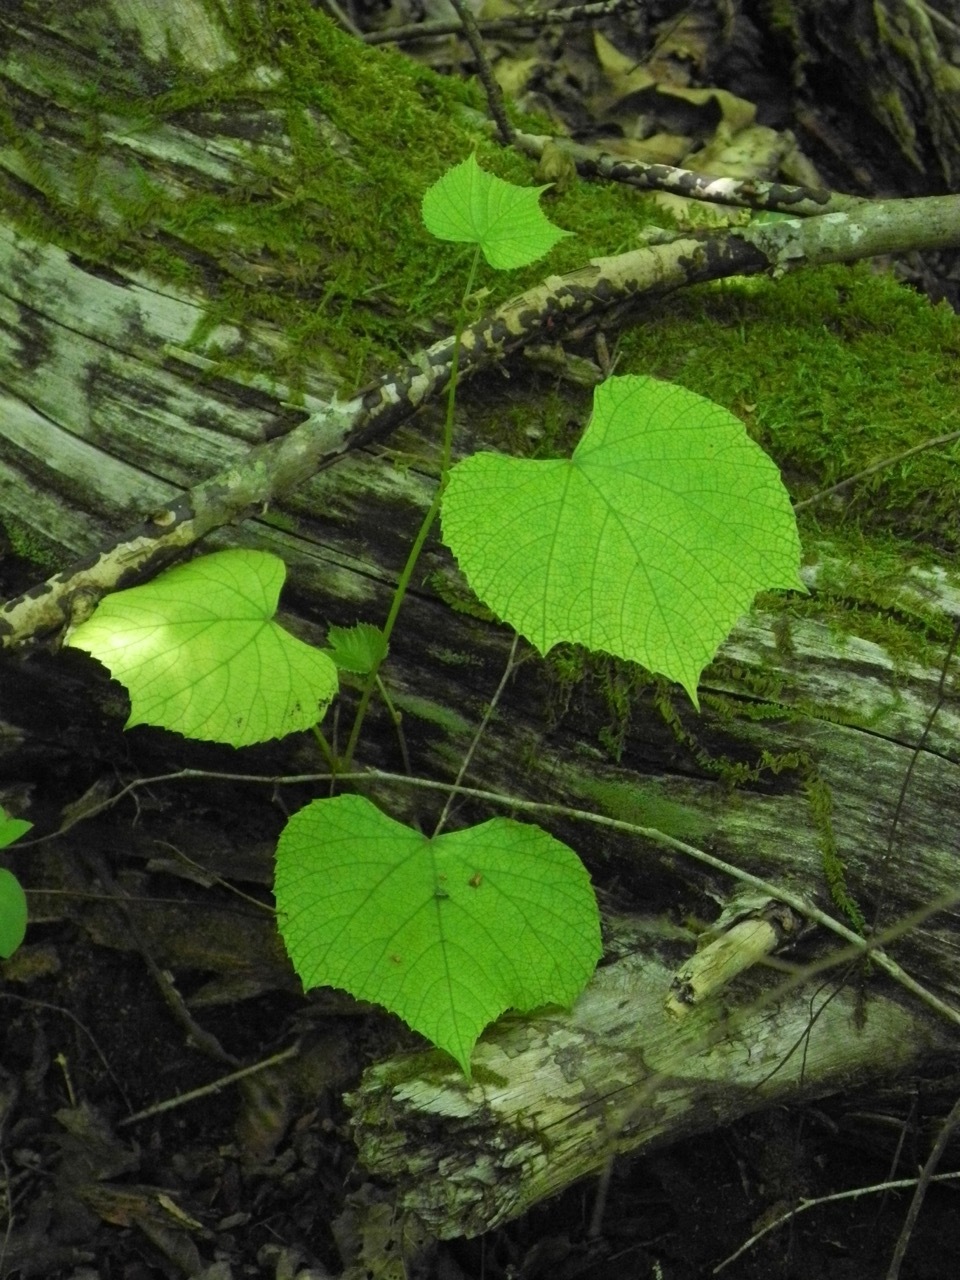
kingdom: Plantae
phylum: Tracheophyta
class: Magnoliopsida
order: Vitales
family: Vitaceae
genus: Vitis
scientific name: Vitis aestivalis
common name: Pigeon grape
